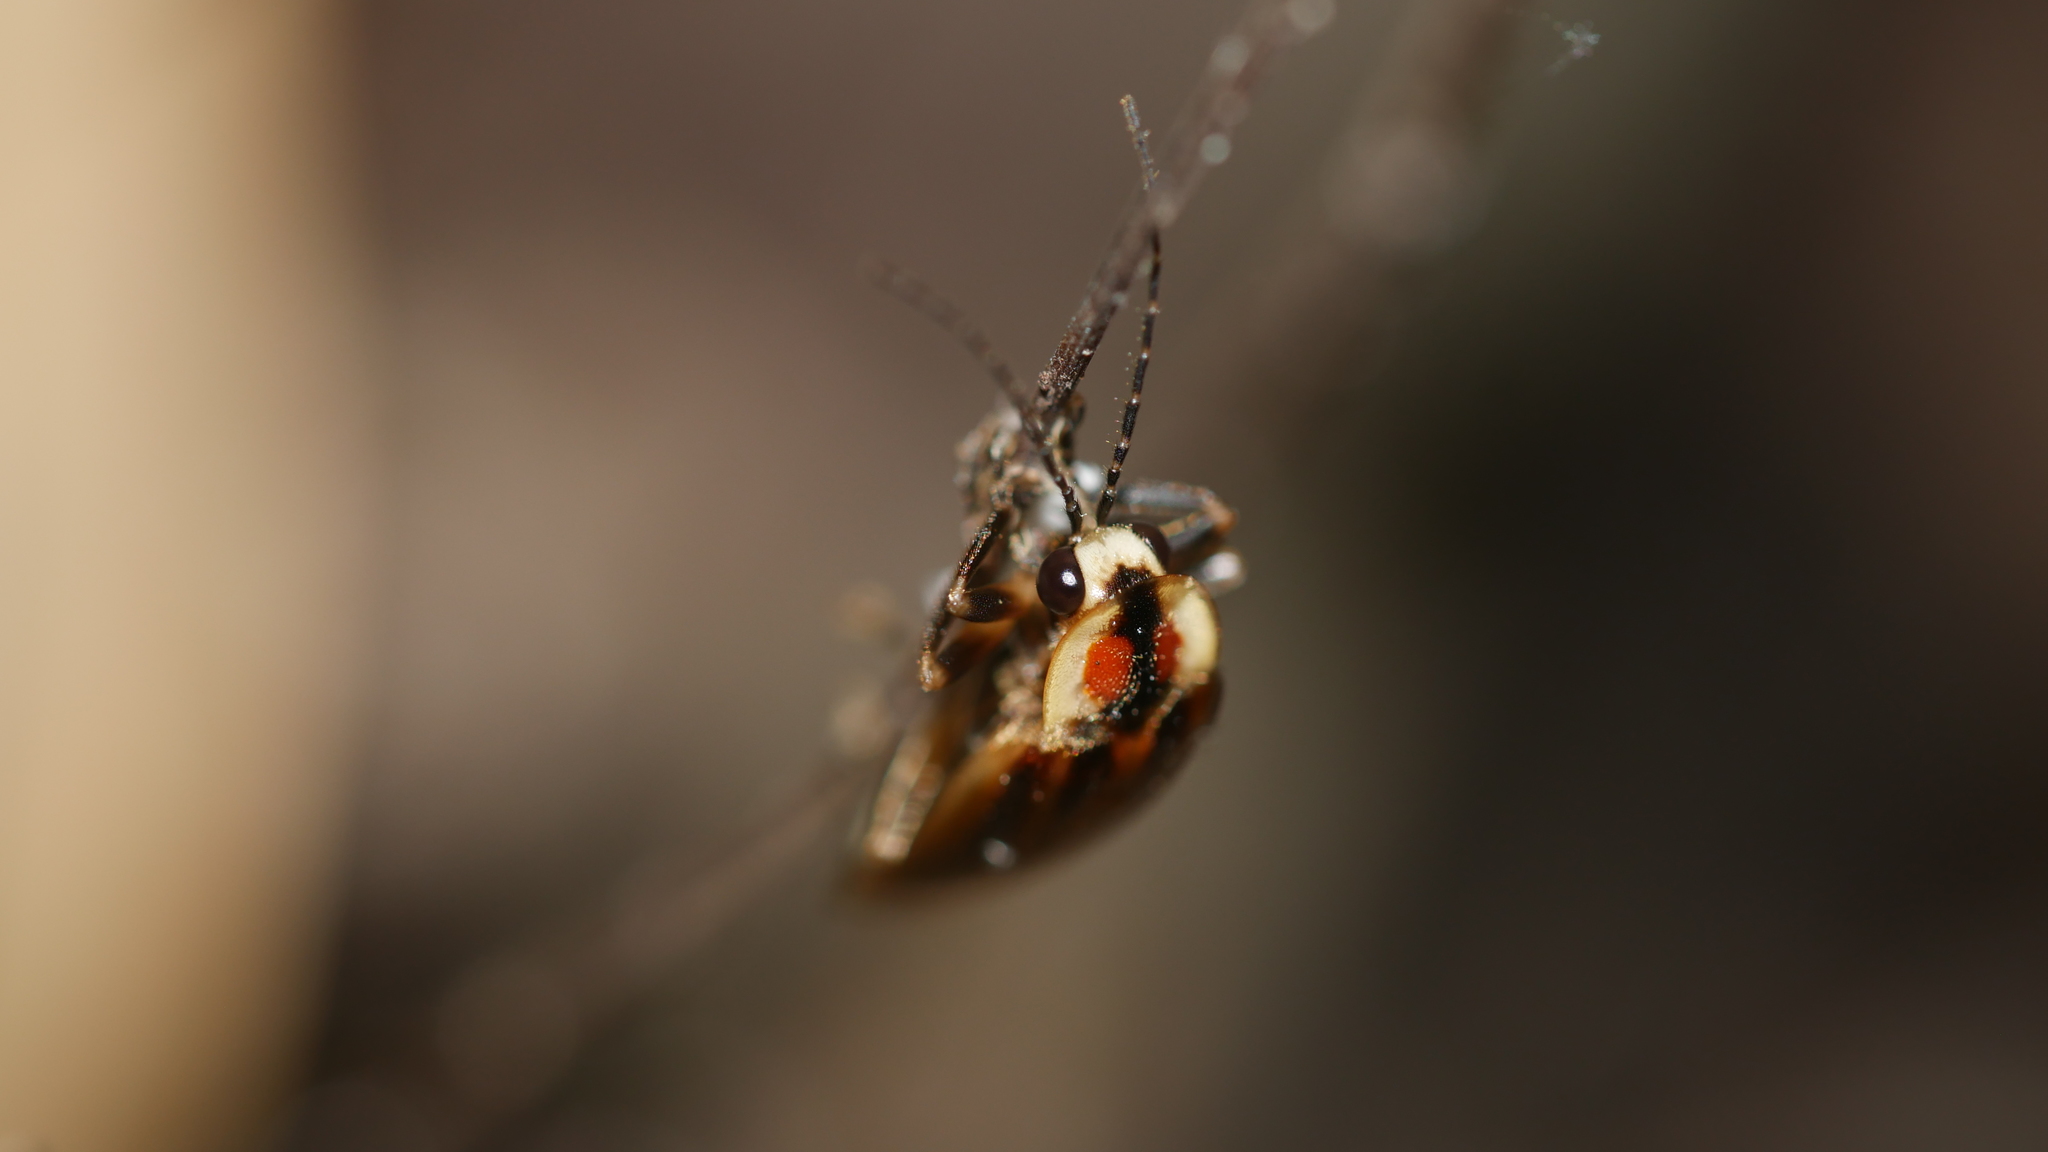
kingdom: Animalia
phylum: Arthropoda
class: Insecta
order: Coleoptera
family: Lampyridae
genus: Photuris
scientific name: Photuris
